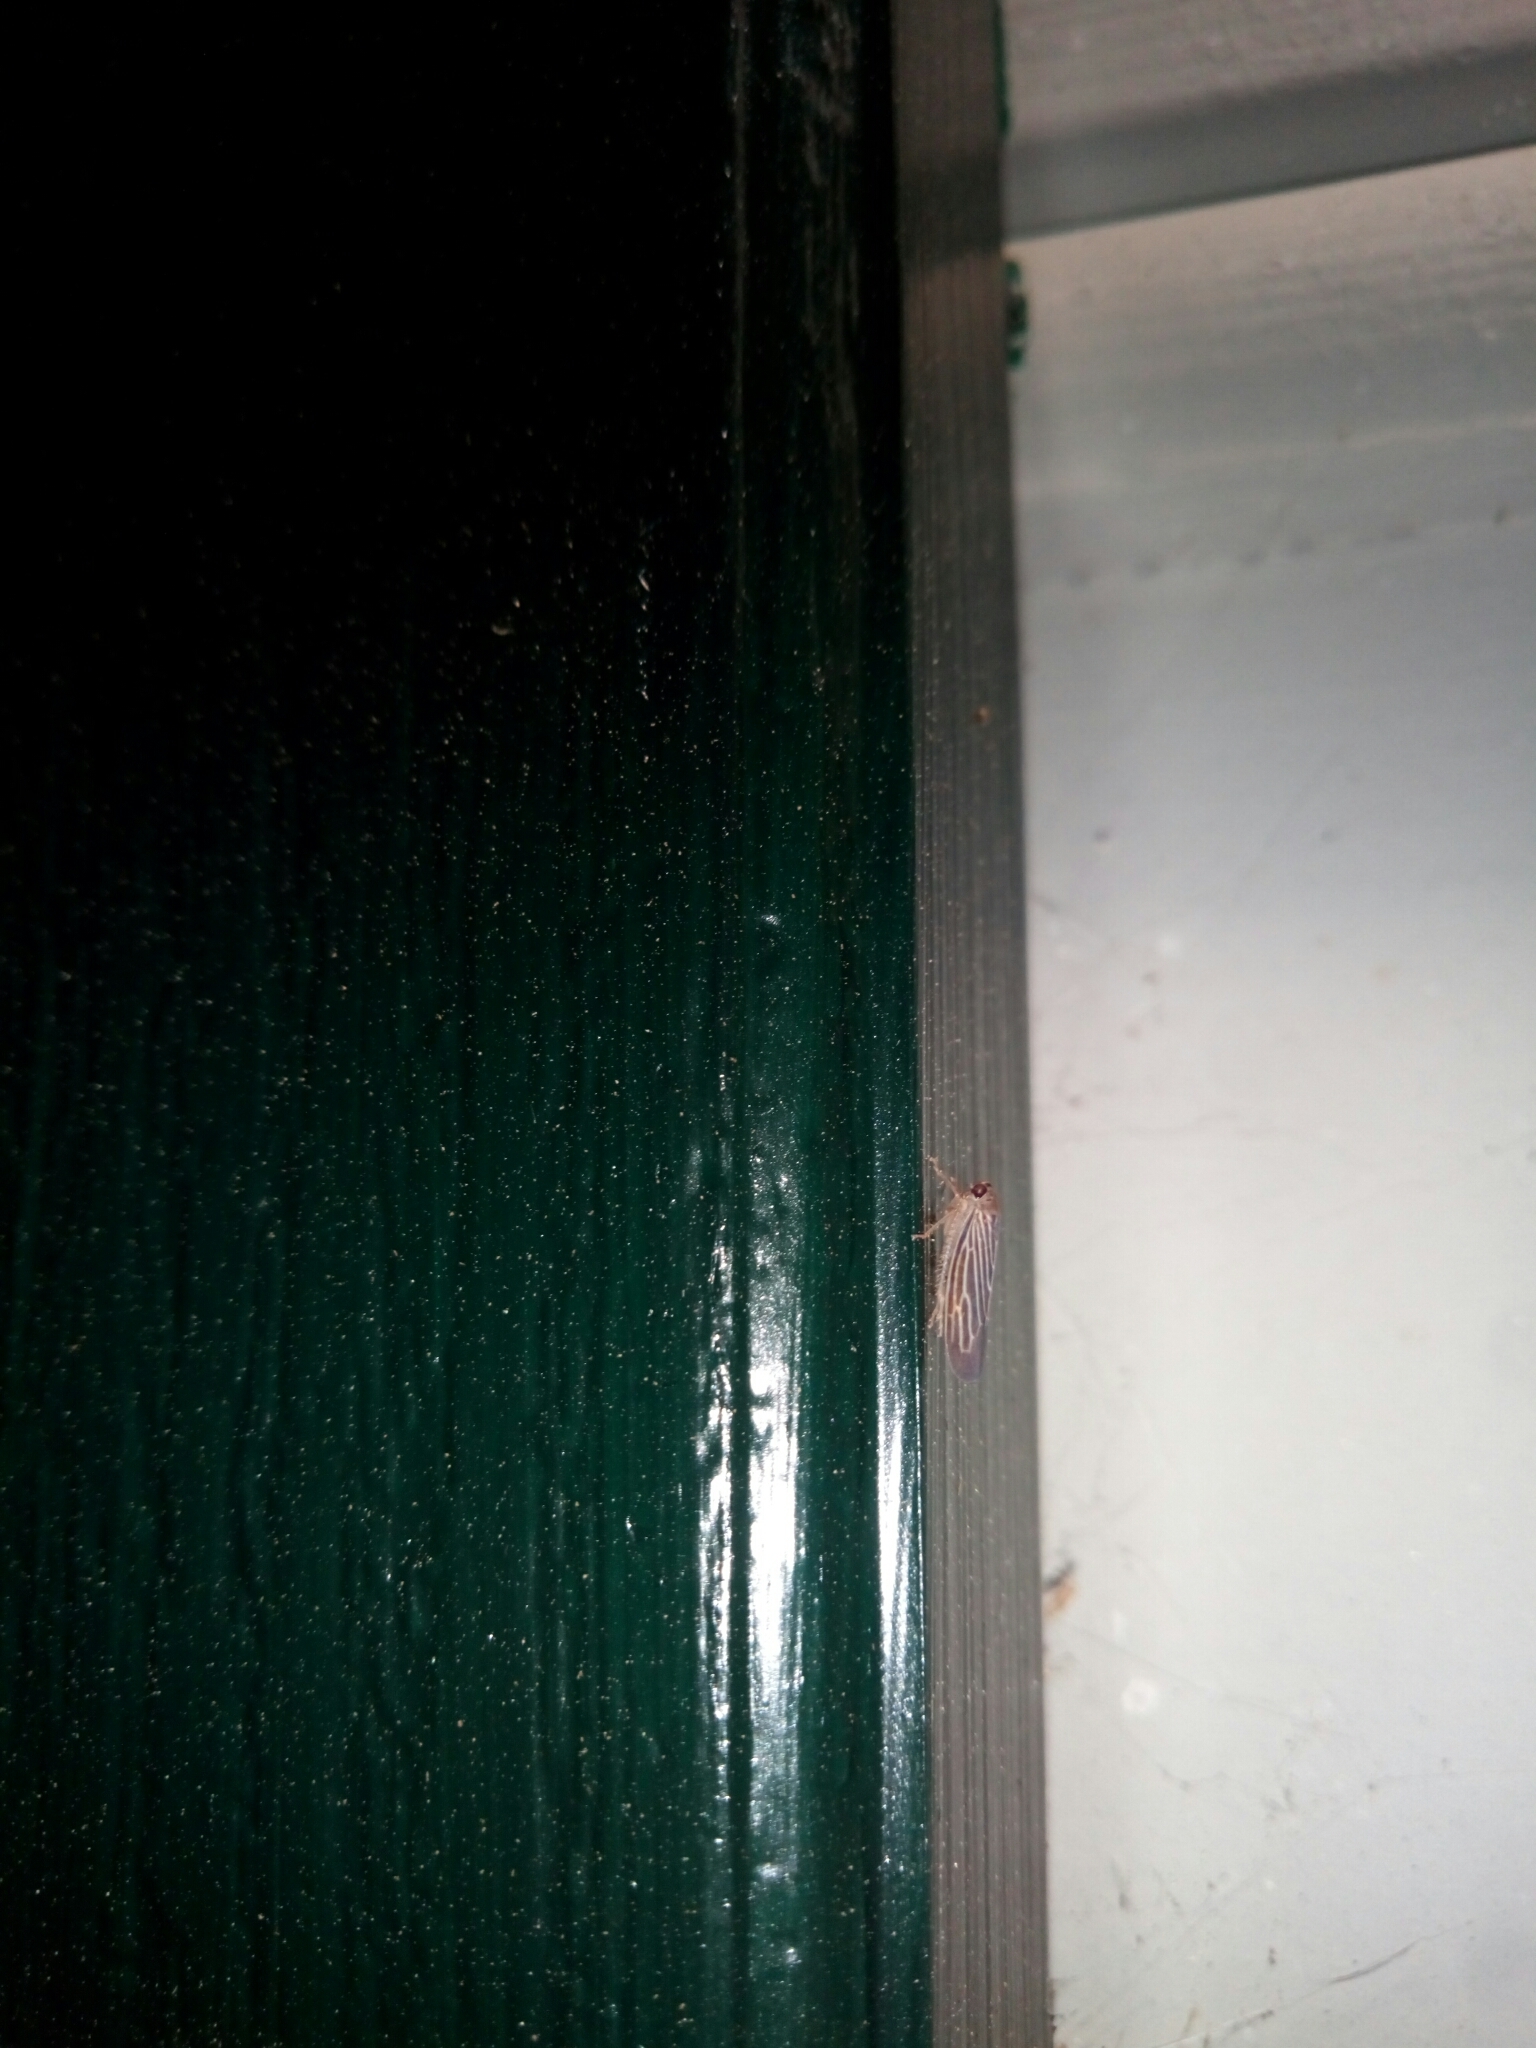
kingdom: Animalia
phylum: Arthropoda
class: Insecta
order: Hemiptera
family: Cicadellidae
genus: Chlorotettix
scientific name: Chlorotettix necopinus
